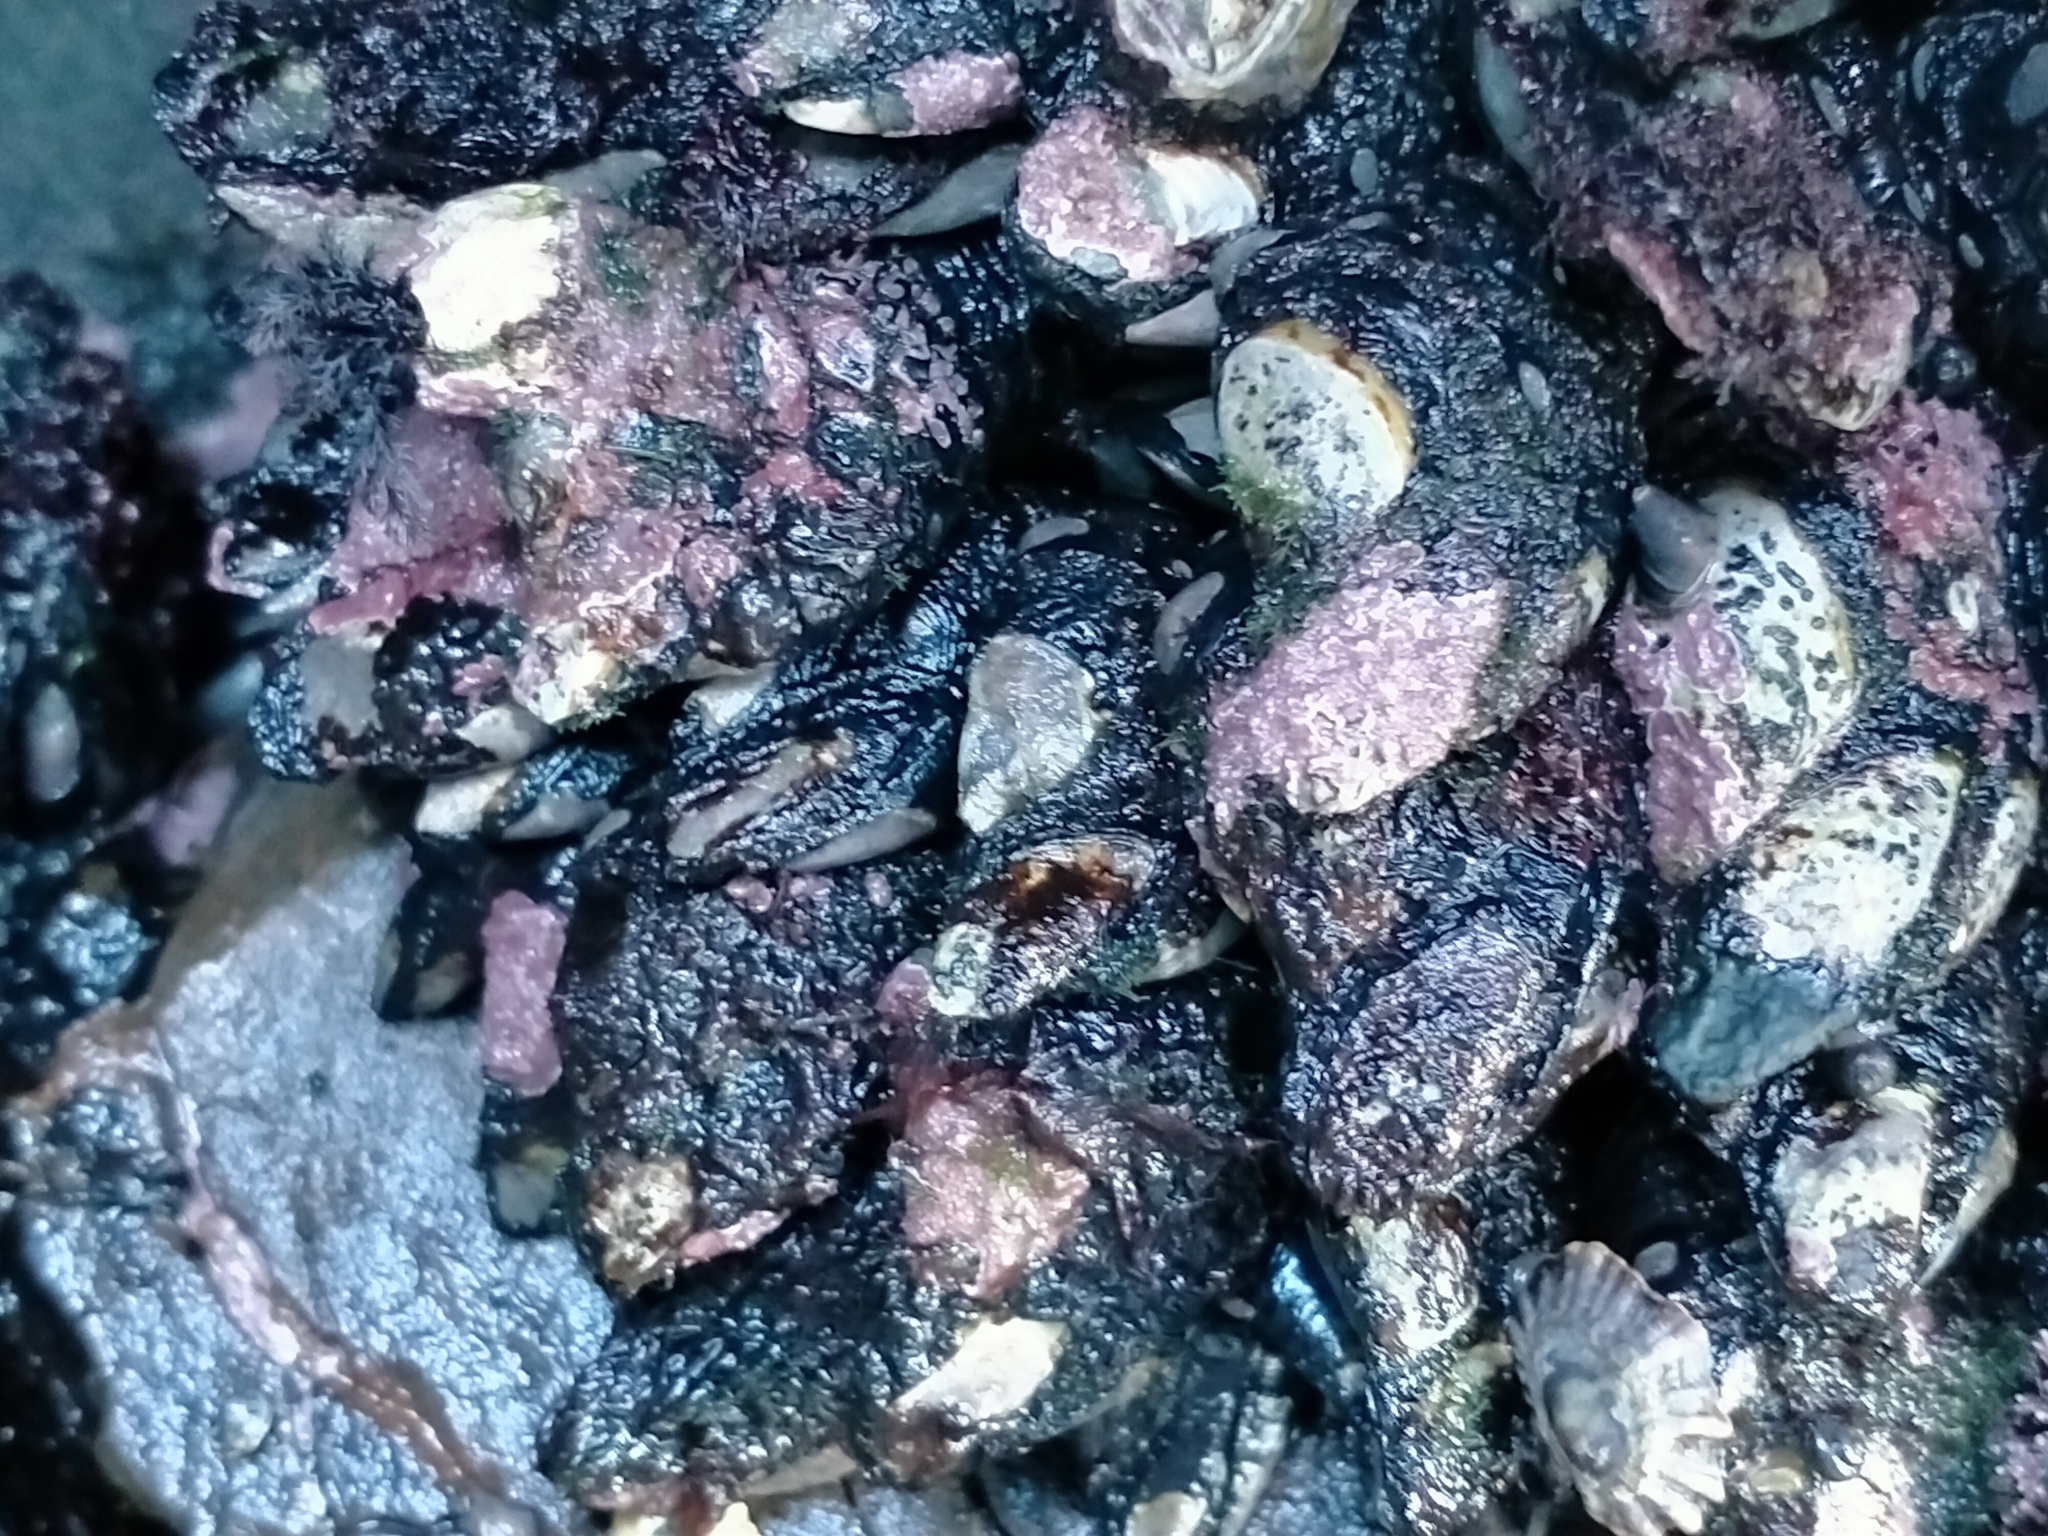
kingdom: Animalia
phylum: Arthropoda
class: Maxillopoda
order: Pedunculata
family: Calanticidae
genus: Calantica
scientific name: Calantica spinosa
